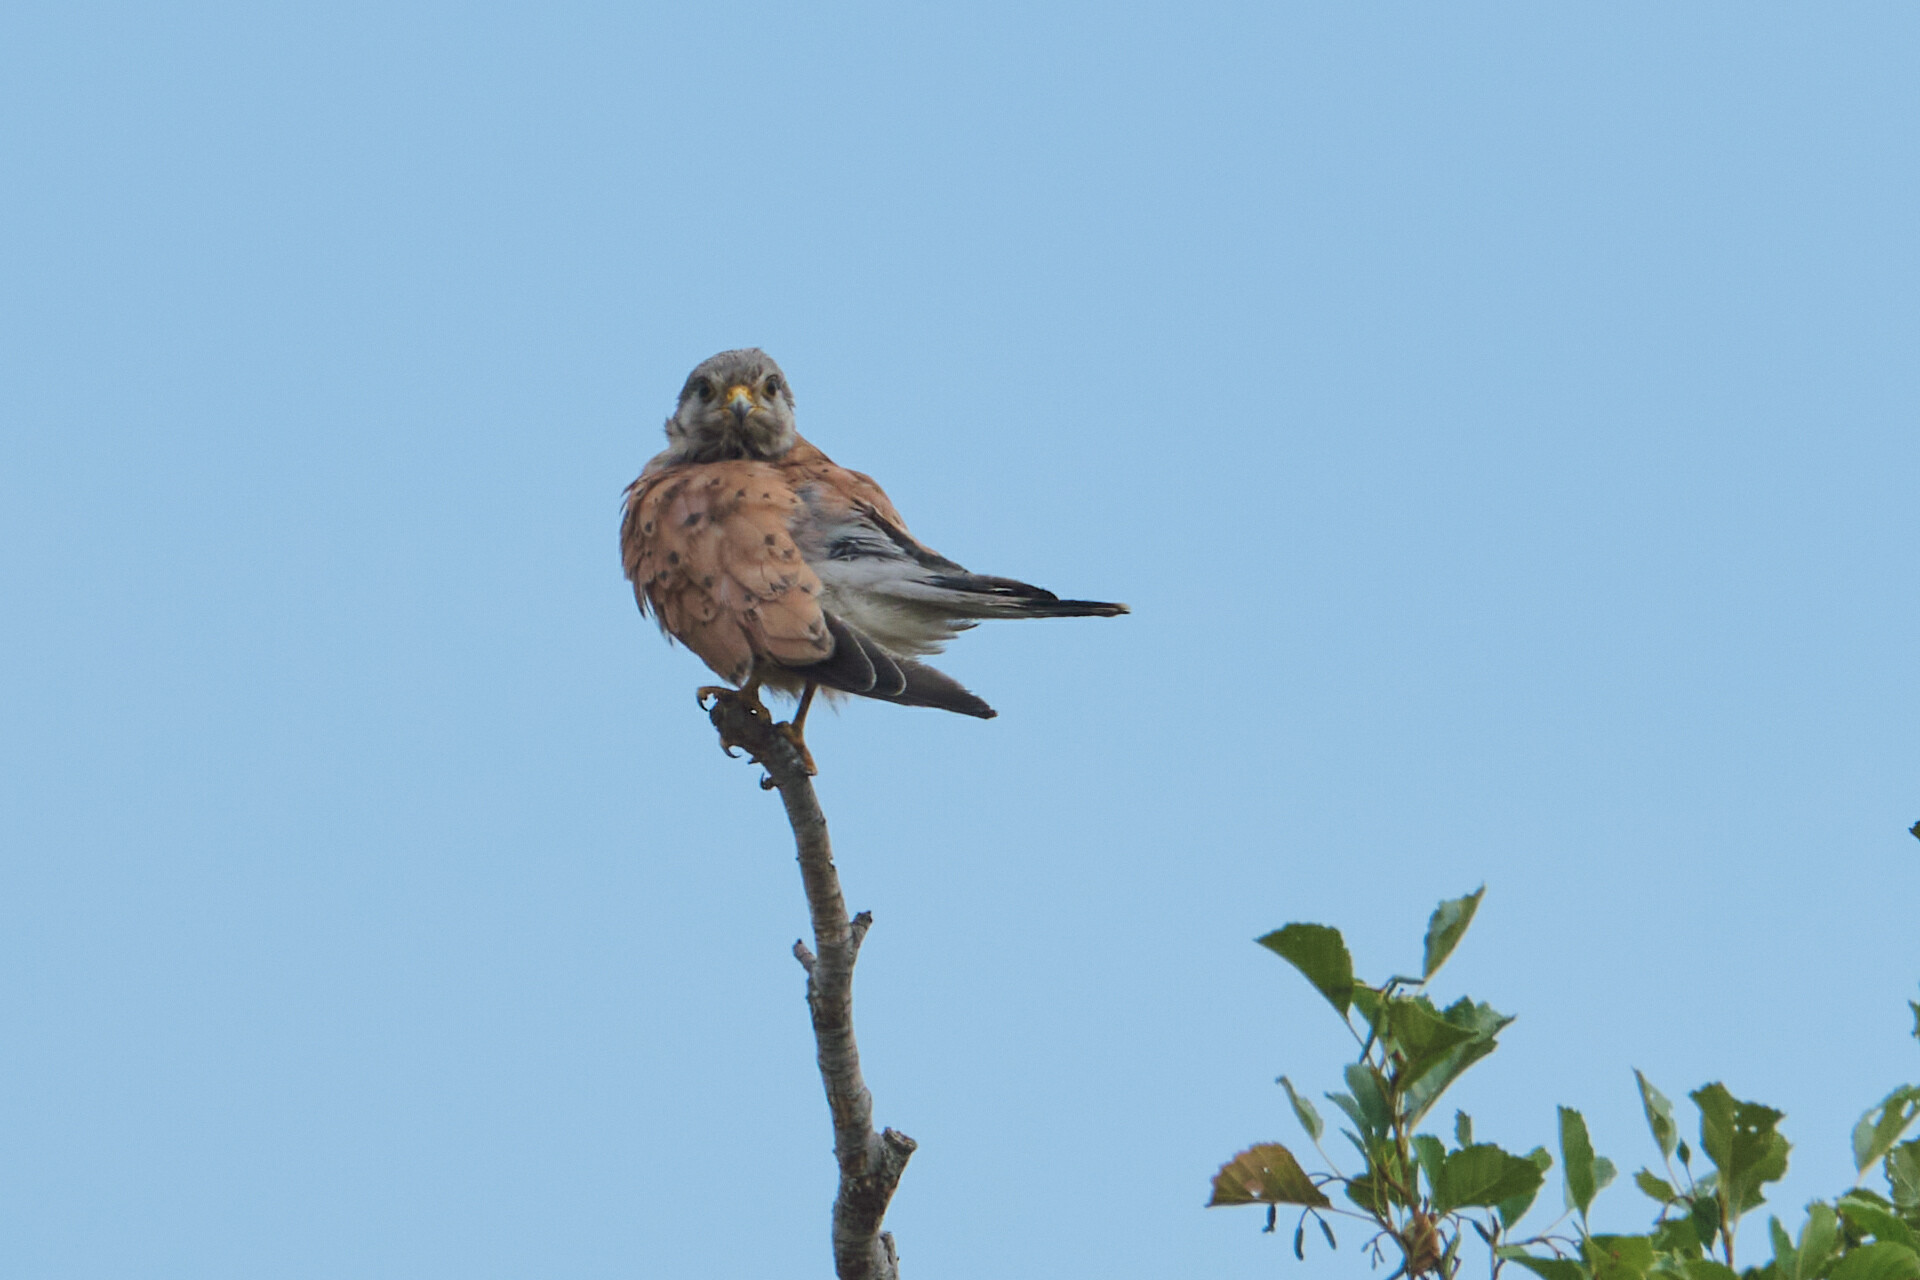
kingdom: Animalia
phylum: Chordata
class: Aves
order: Falconiformes
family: Falconidae
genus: Falco
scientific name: Falco tinnunculus
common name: Common kestrel
